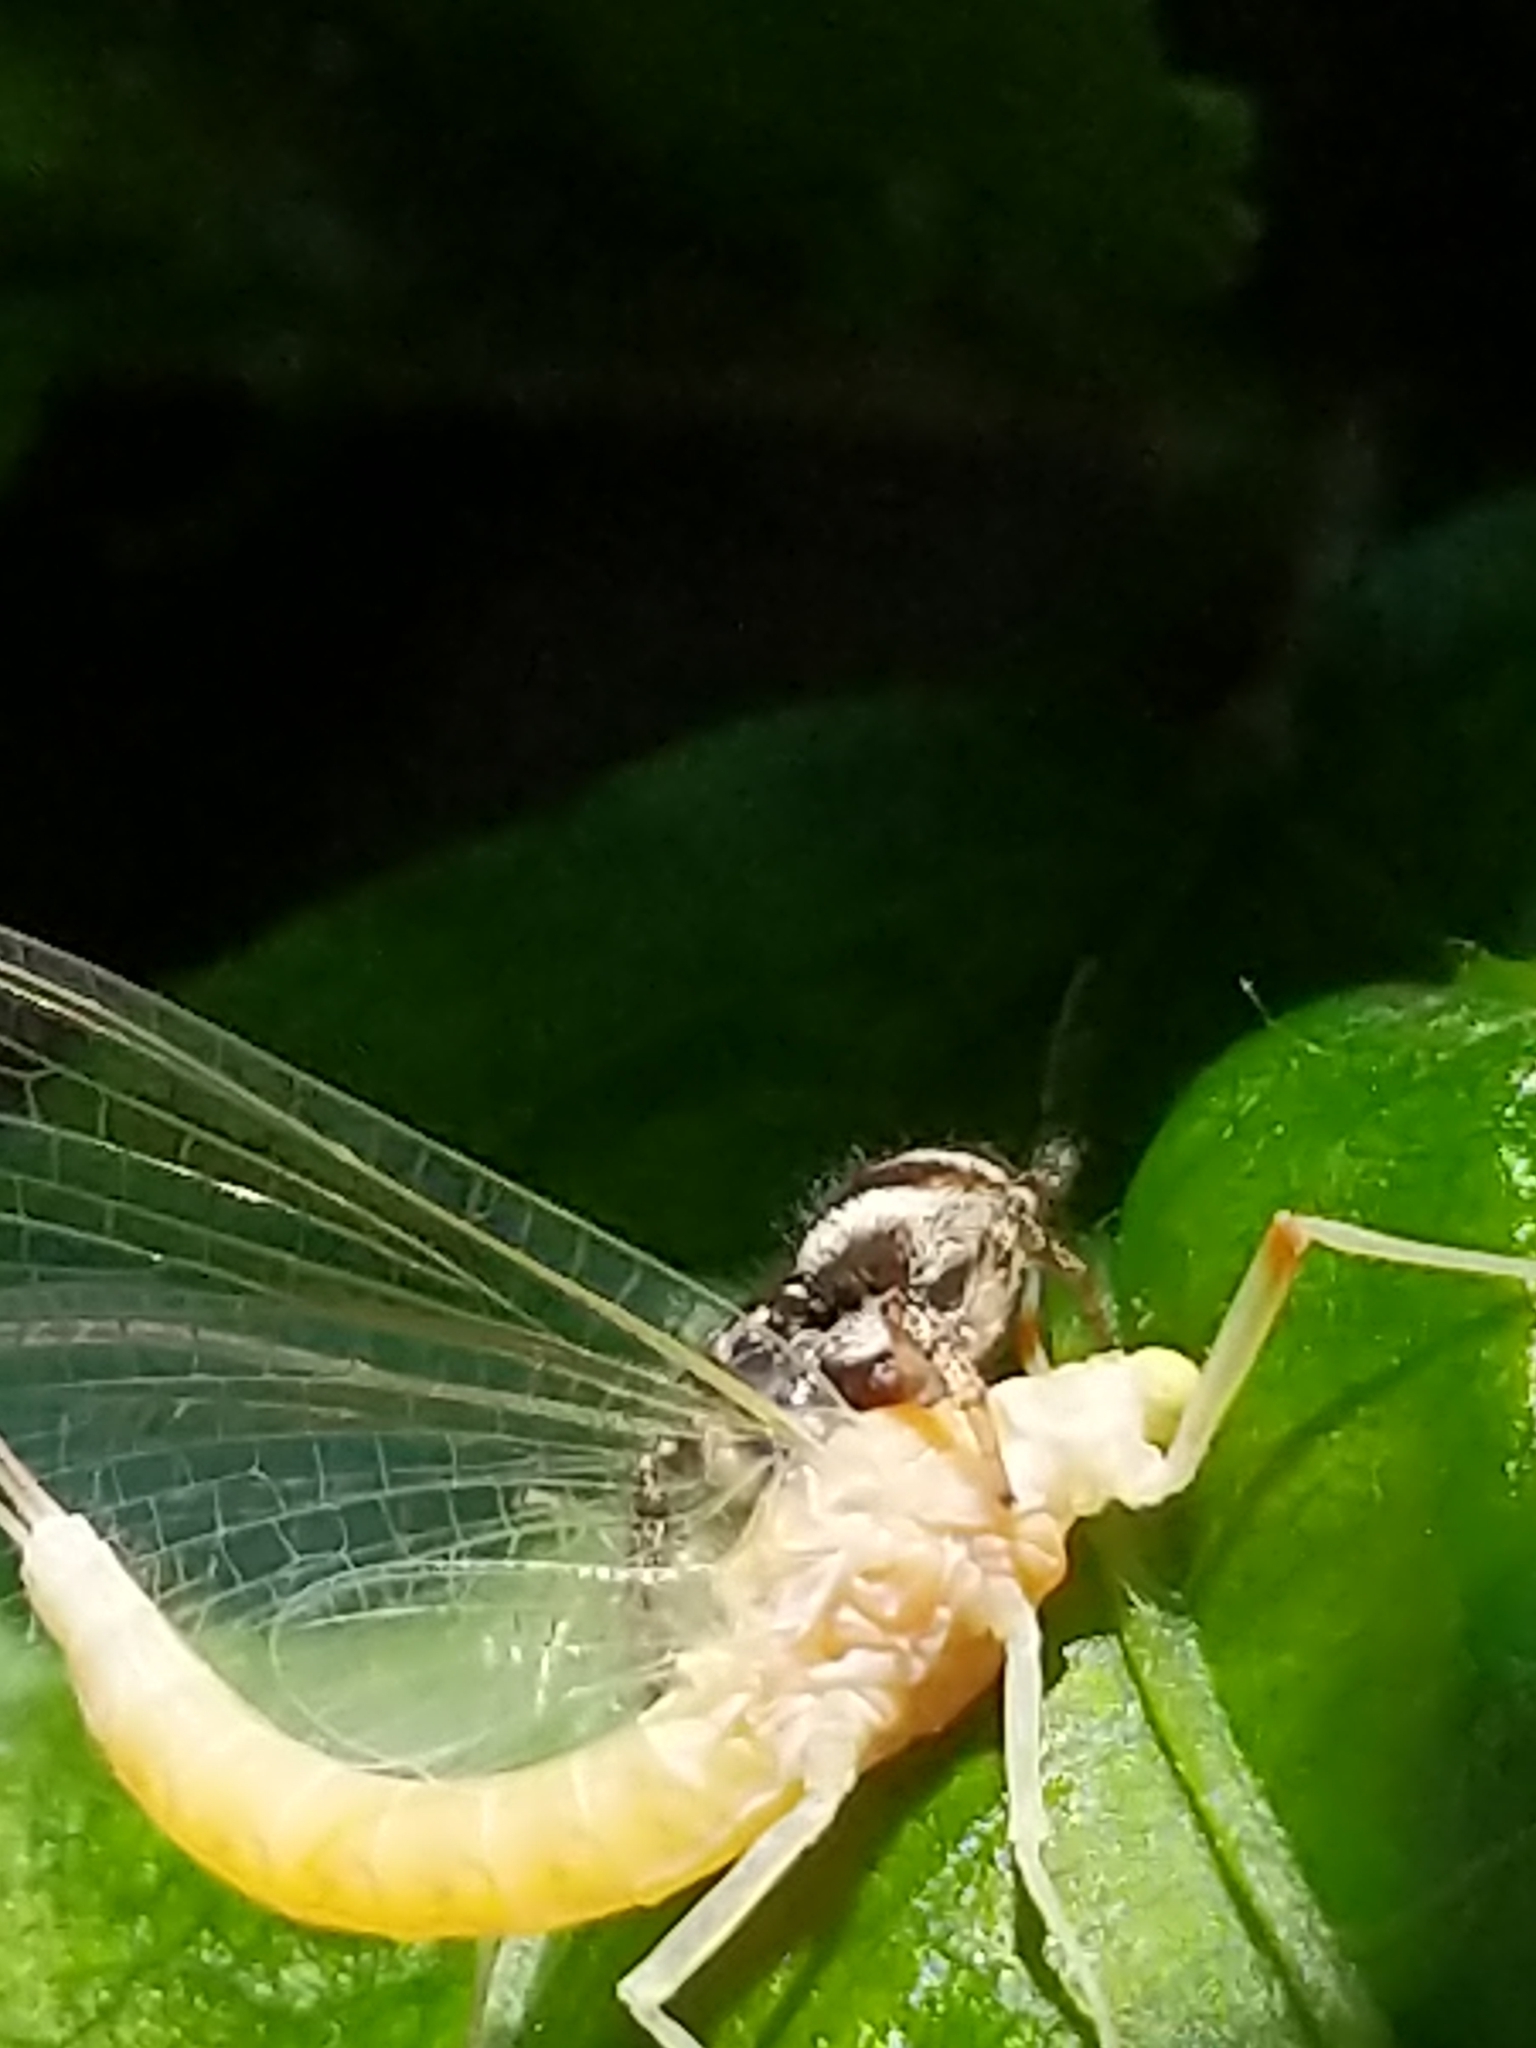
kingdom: Animalia
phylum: Arthropoda
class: Arachnida
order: Araneae
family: Salticidae
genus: Salticus
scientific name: Salticus scenicus
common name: Zebra jumper
